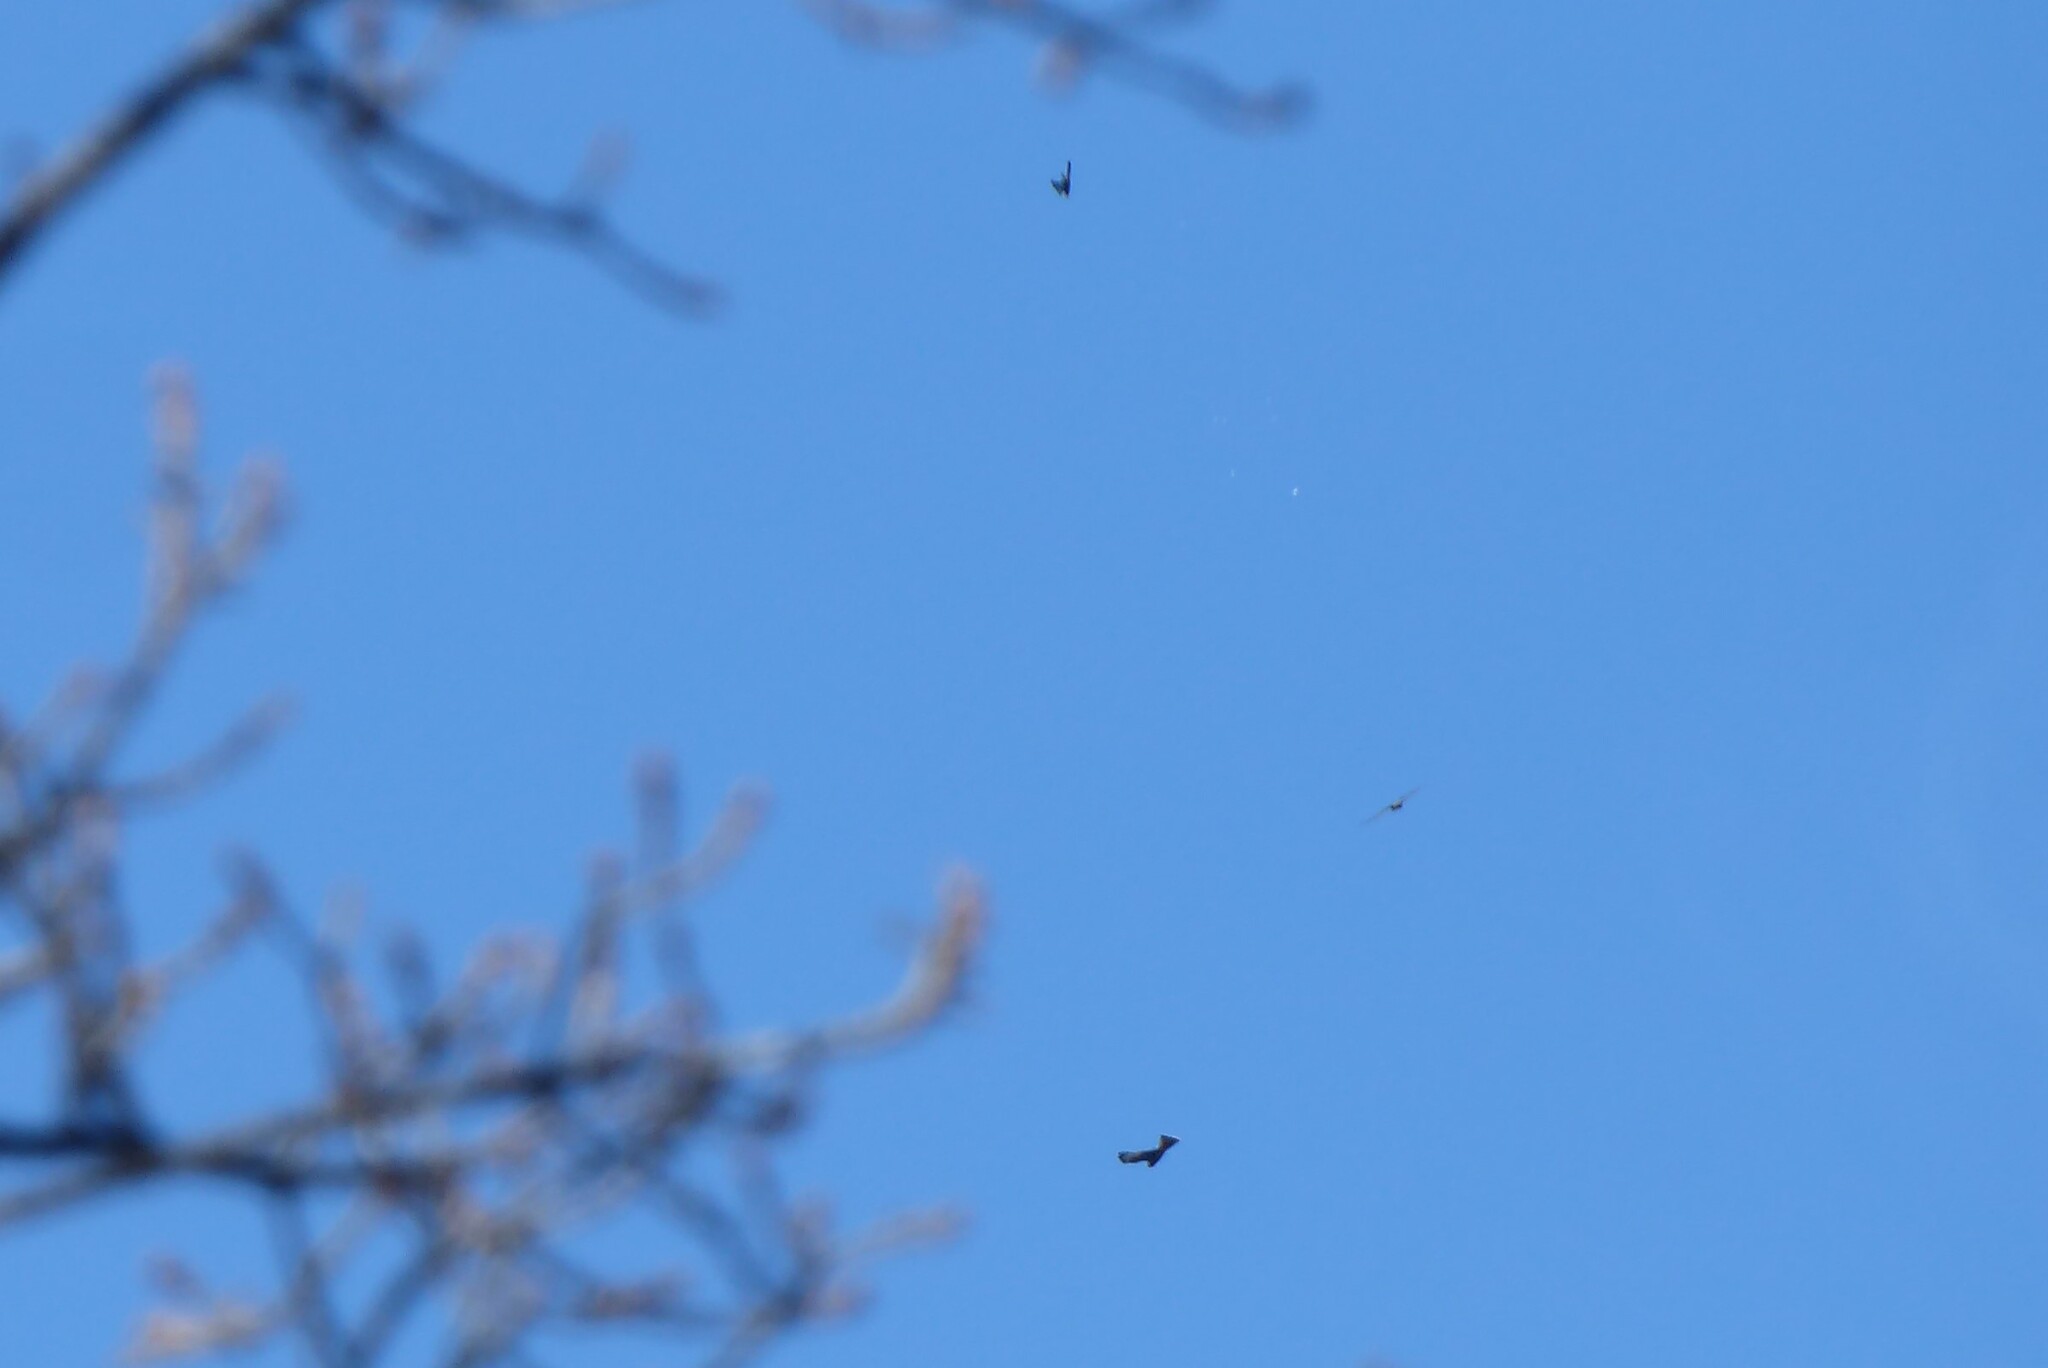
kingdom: Animalia
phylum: Chordata
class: Aves
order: Falconiformes
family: Falconidae
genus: Falco
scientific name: Falco novaeseelandiae
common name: New zealand falcon
